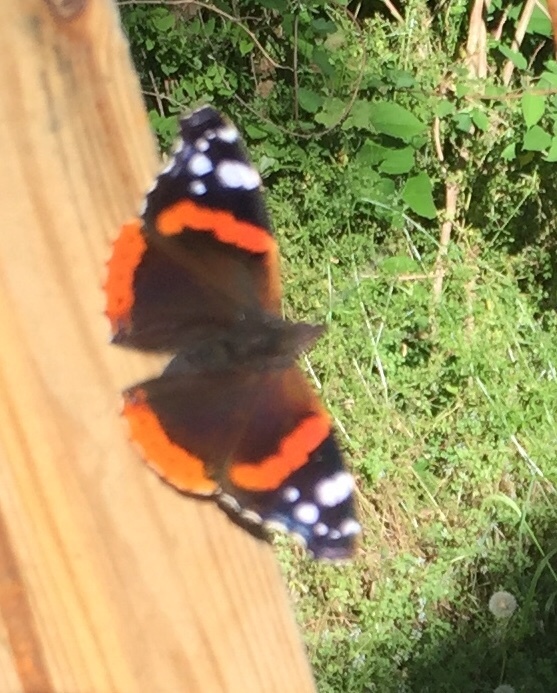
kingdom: Animalia
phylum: Arthropoda
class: Insecta
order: Lepidoptera
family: Nymphalidae
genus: Vanessa
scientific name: Vanessa atalanta
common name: Red admiral
